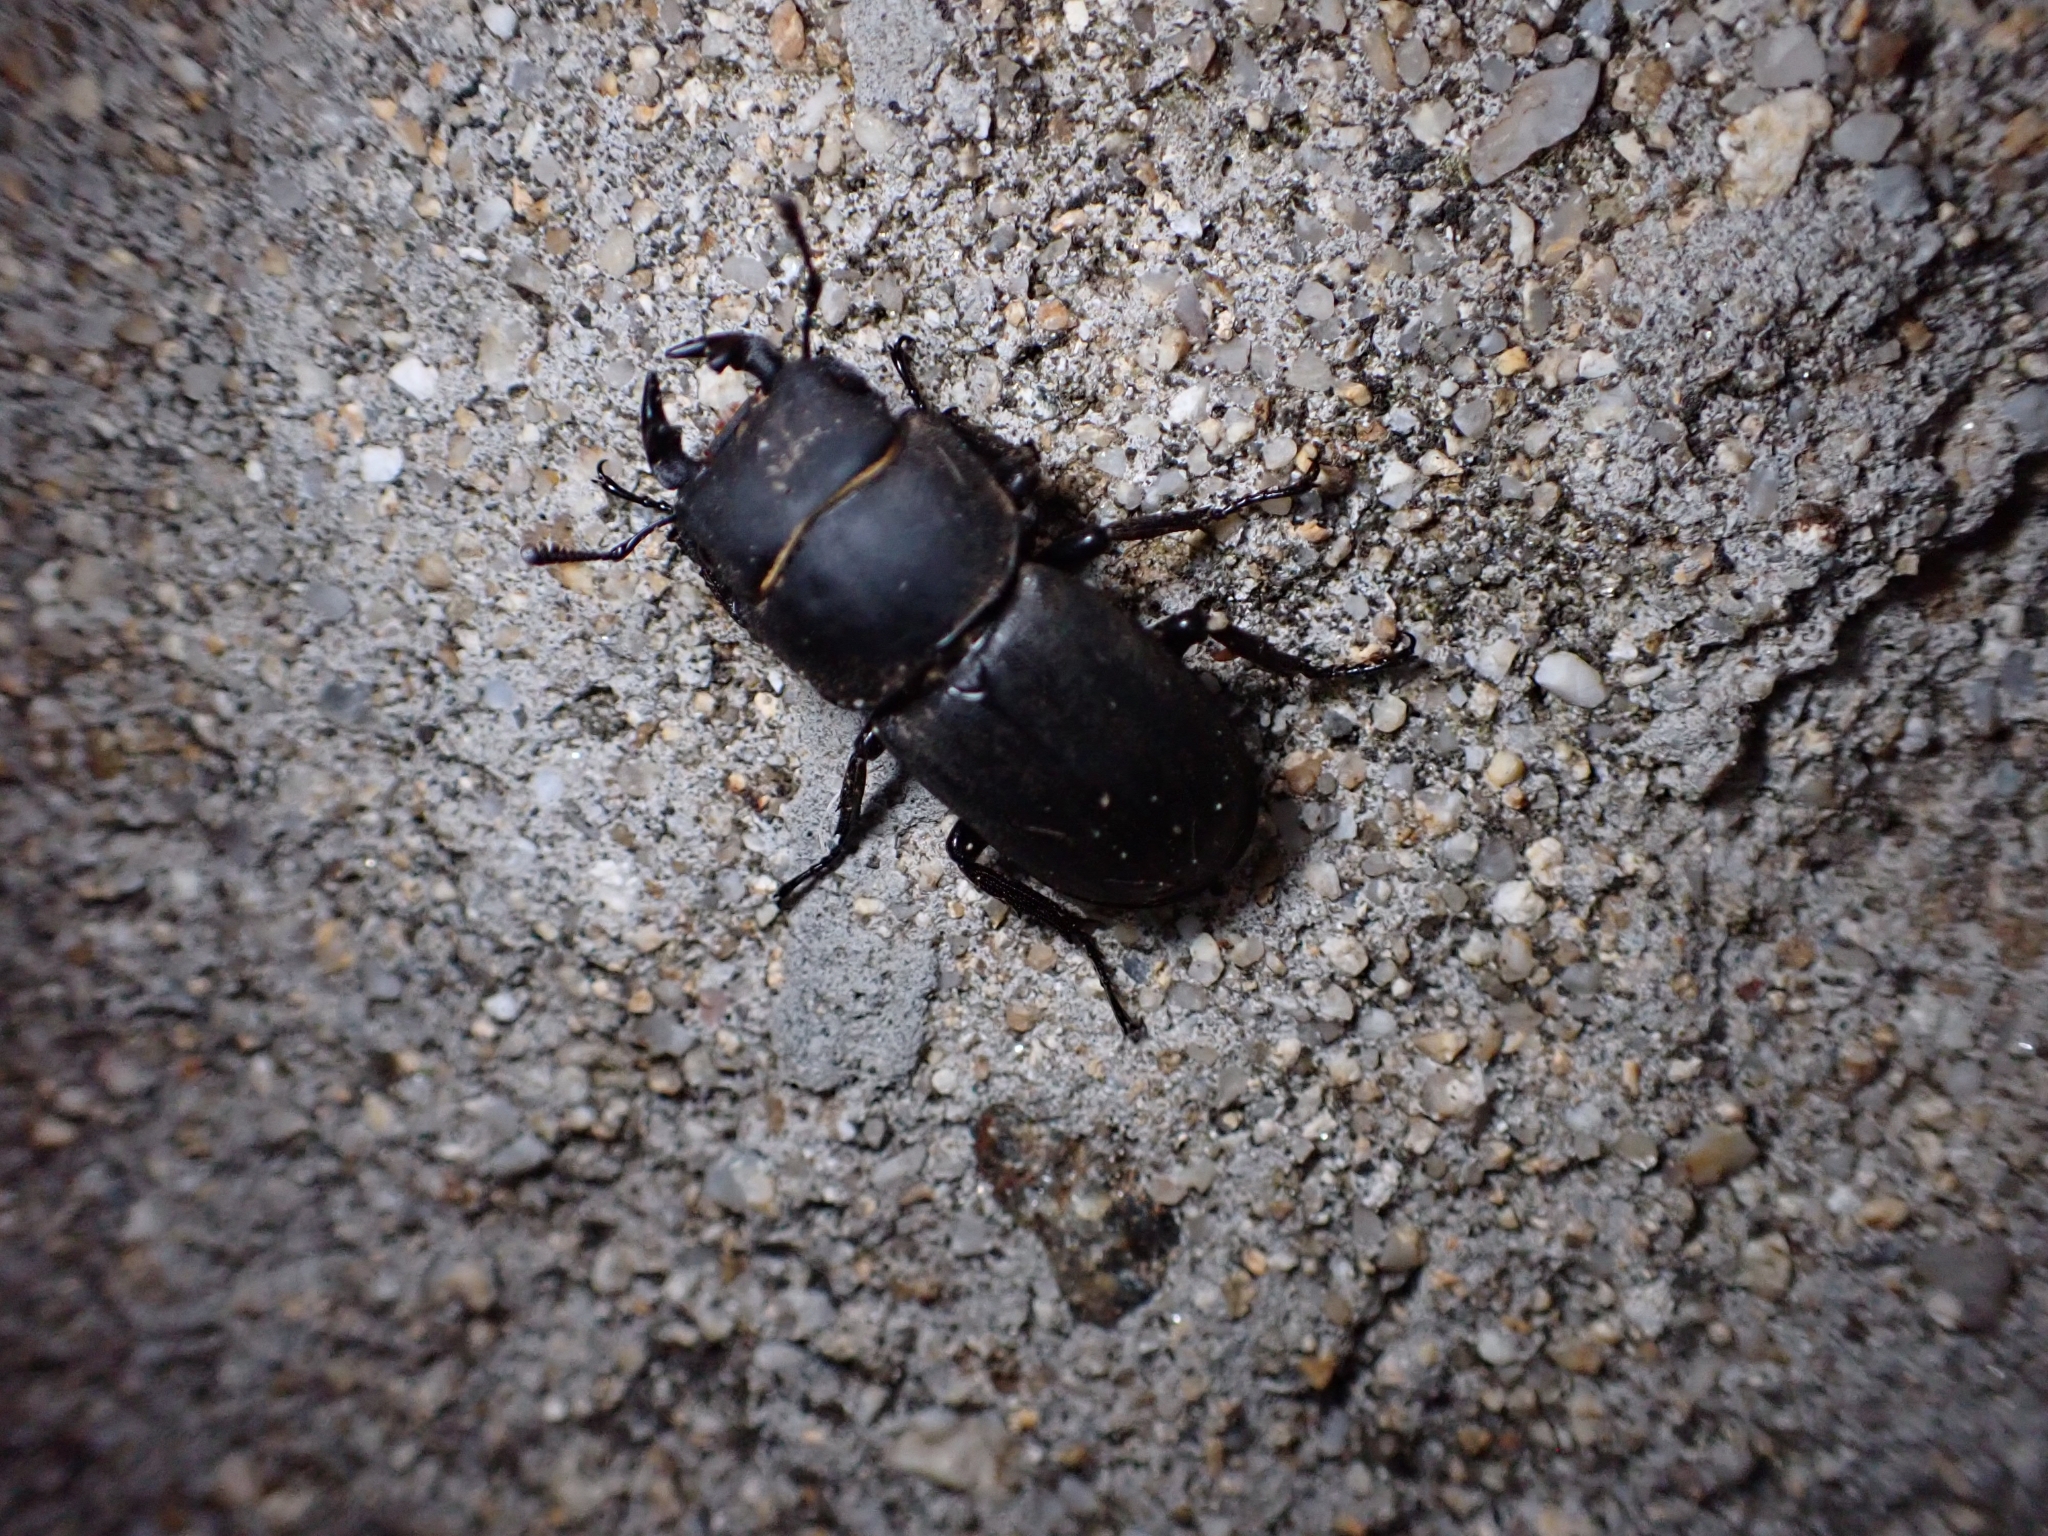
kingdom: Animalia
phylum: Arthropoda
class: Insecta
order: Coleoptera
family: Lucanidae
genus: Dorcus
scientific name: Dorcus parallelipipedus
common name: Lesser stag beetle
